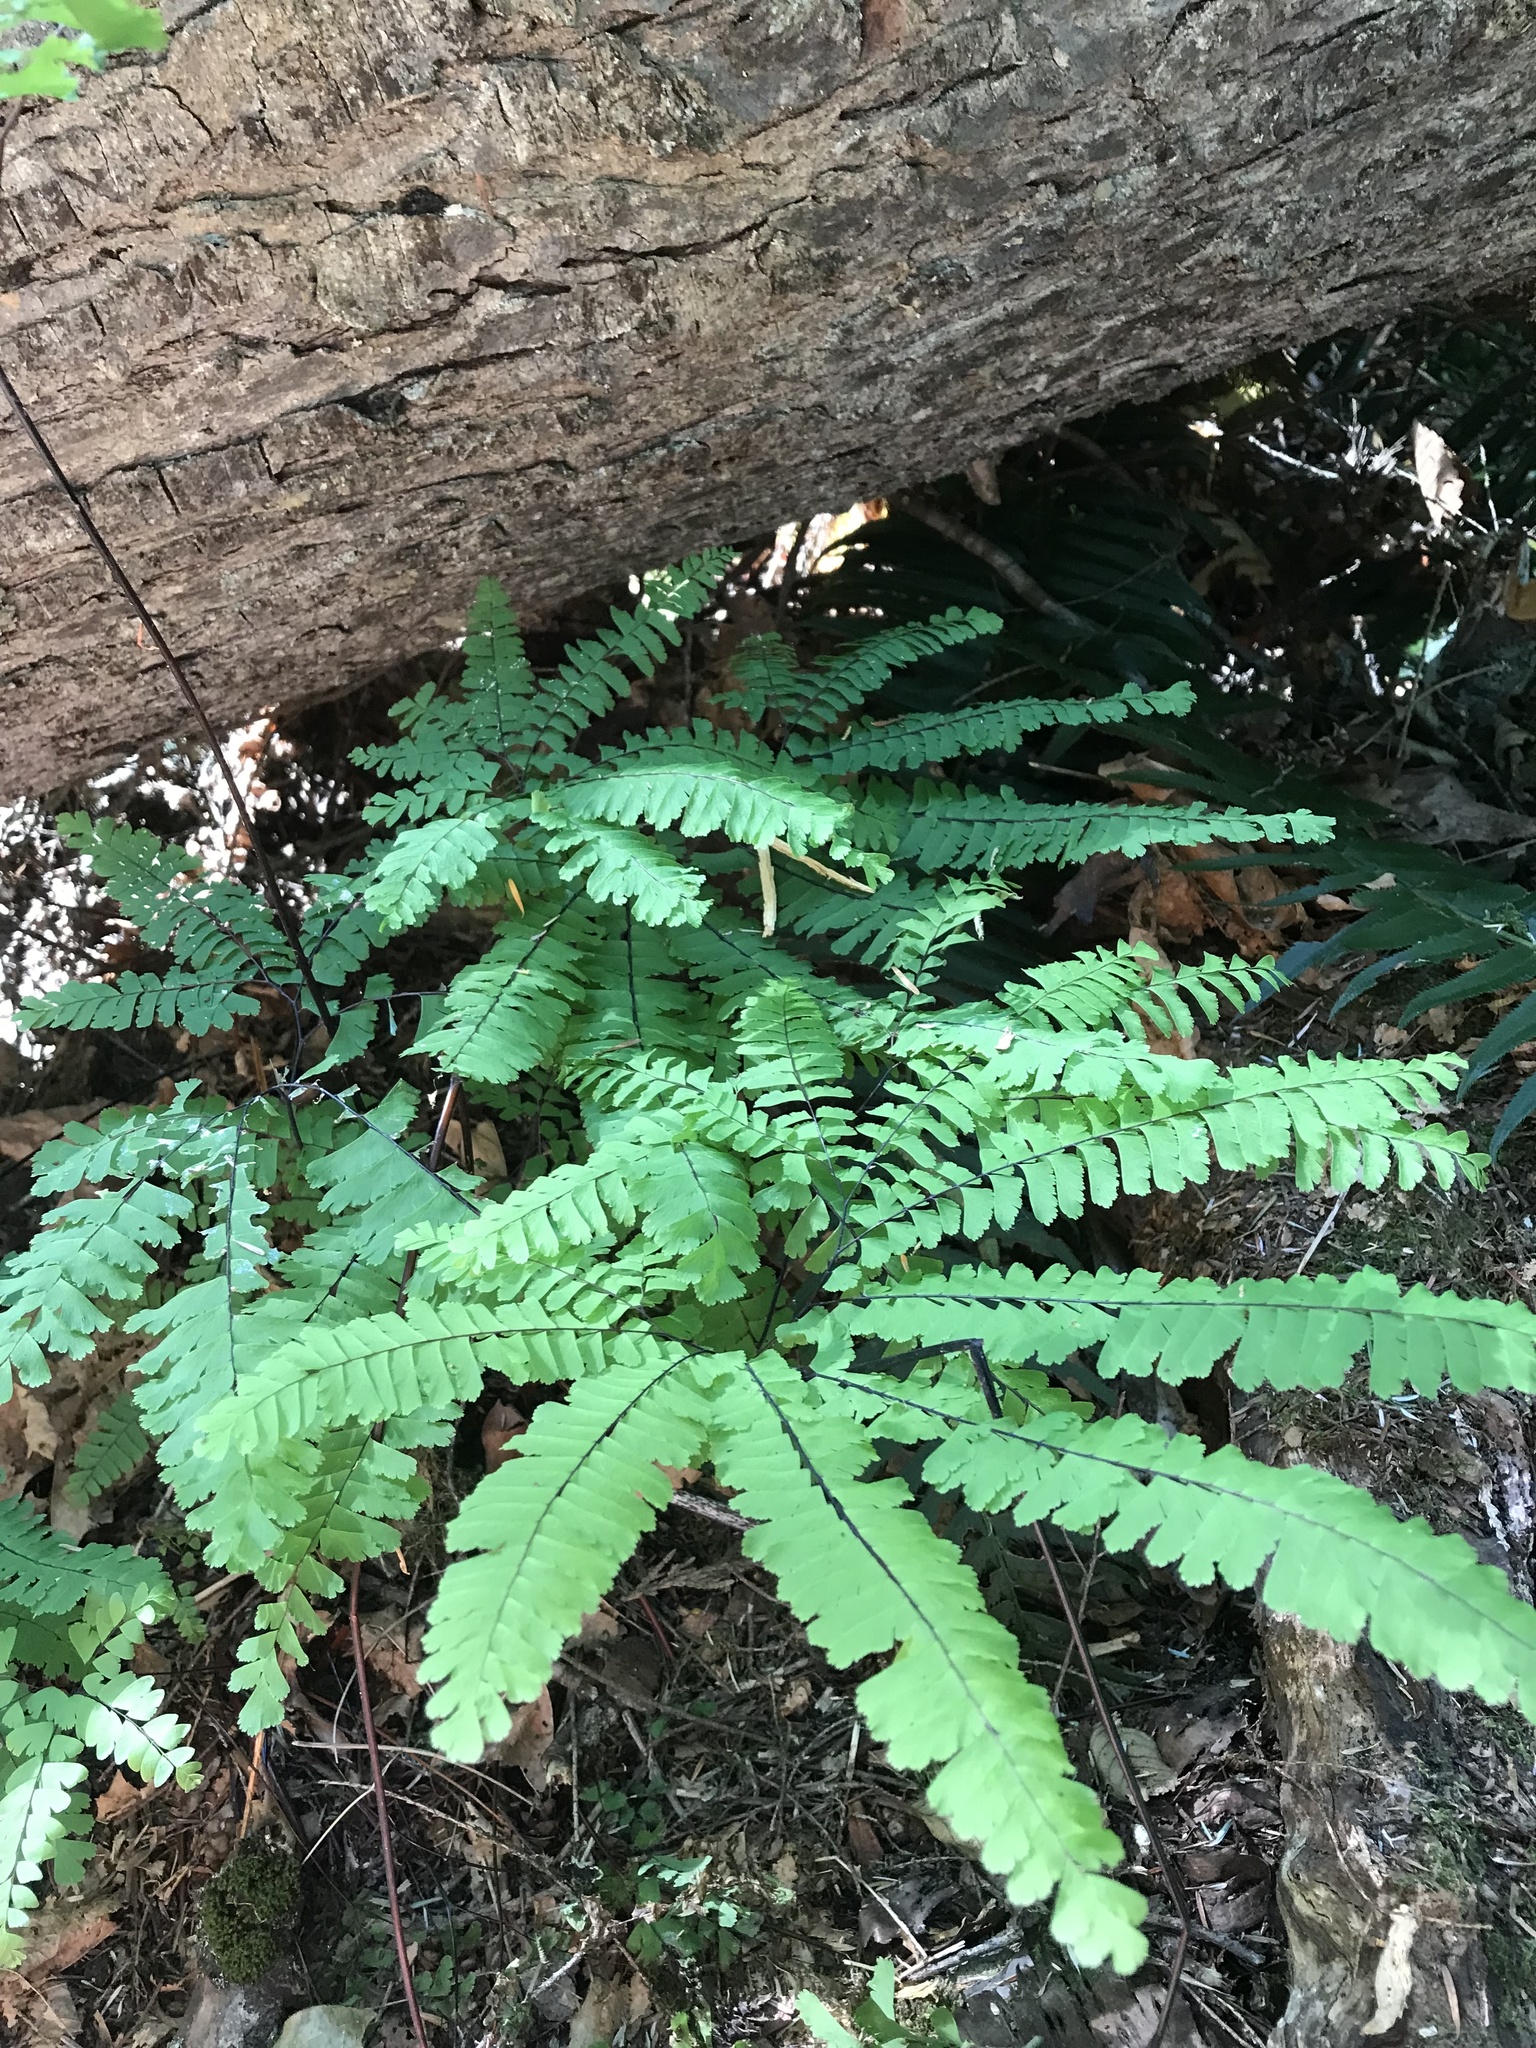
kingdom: Plantae
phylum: Tracheophyta
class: Polypodiopsida
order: Polypodiales
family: Pteridaceae
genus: Adiantum
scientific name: Adiantum aleuticum
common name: Aleutian maidenhair fern
